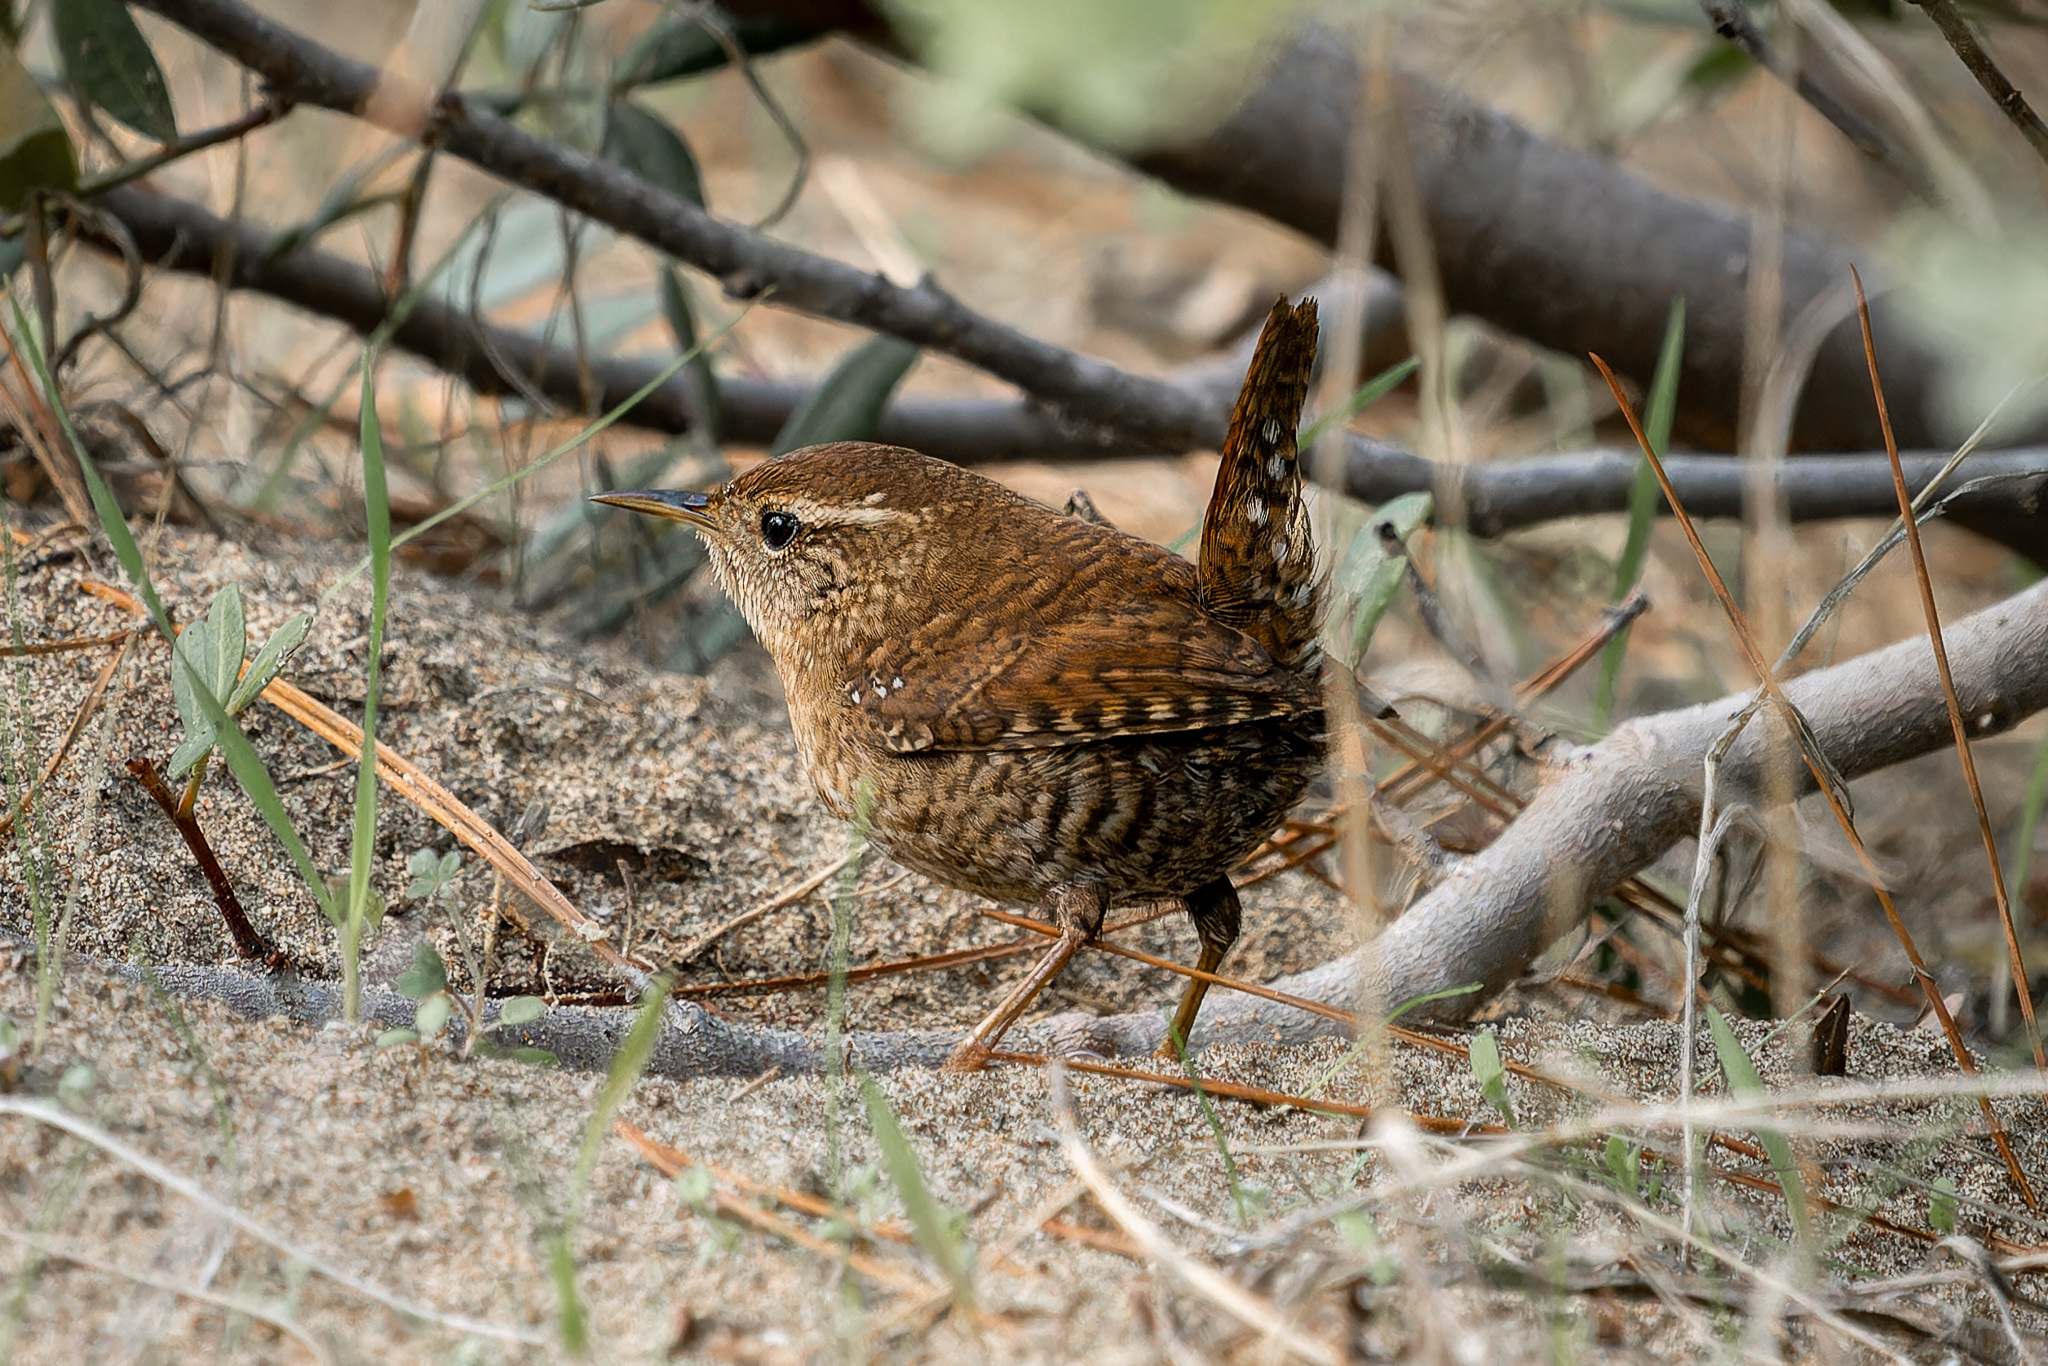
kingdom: Animalia
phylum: Chordata
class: Aves
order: Passeriformes
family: Troglodytidae
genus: Troglodytes
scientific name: Troglodytes troglodytes
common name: Eurasian wren
